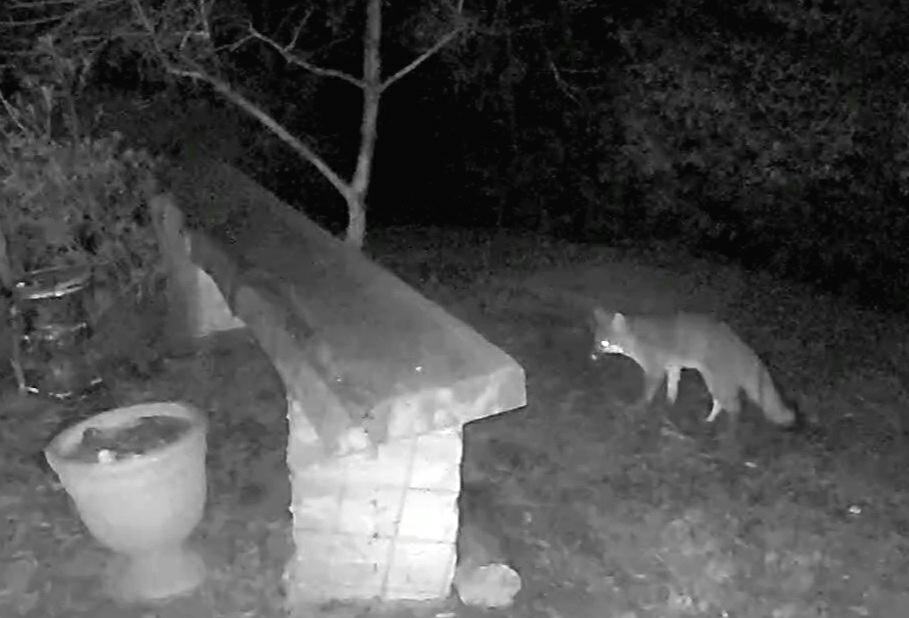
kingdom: Animalia
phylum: Chordata
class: Mammalia
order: Carnivora
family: Canidae
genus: Urocyon
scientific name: Urocyon cinereoargenteus
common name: Gray fox
